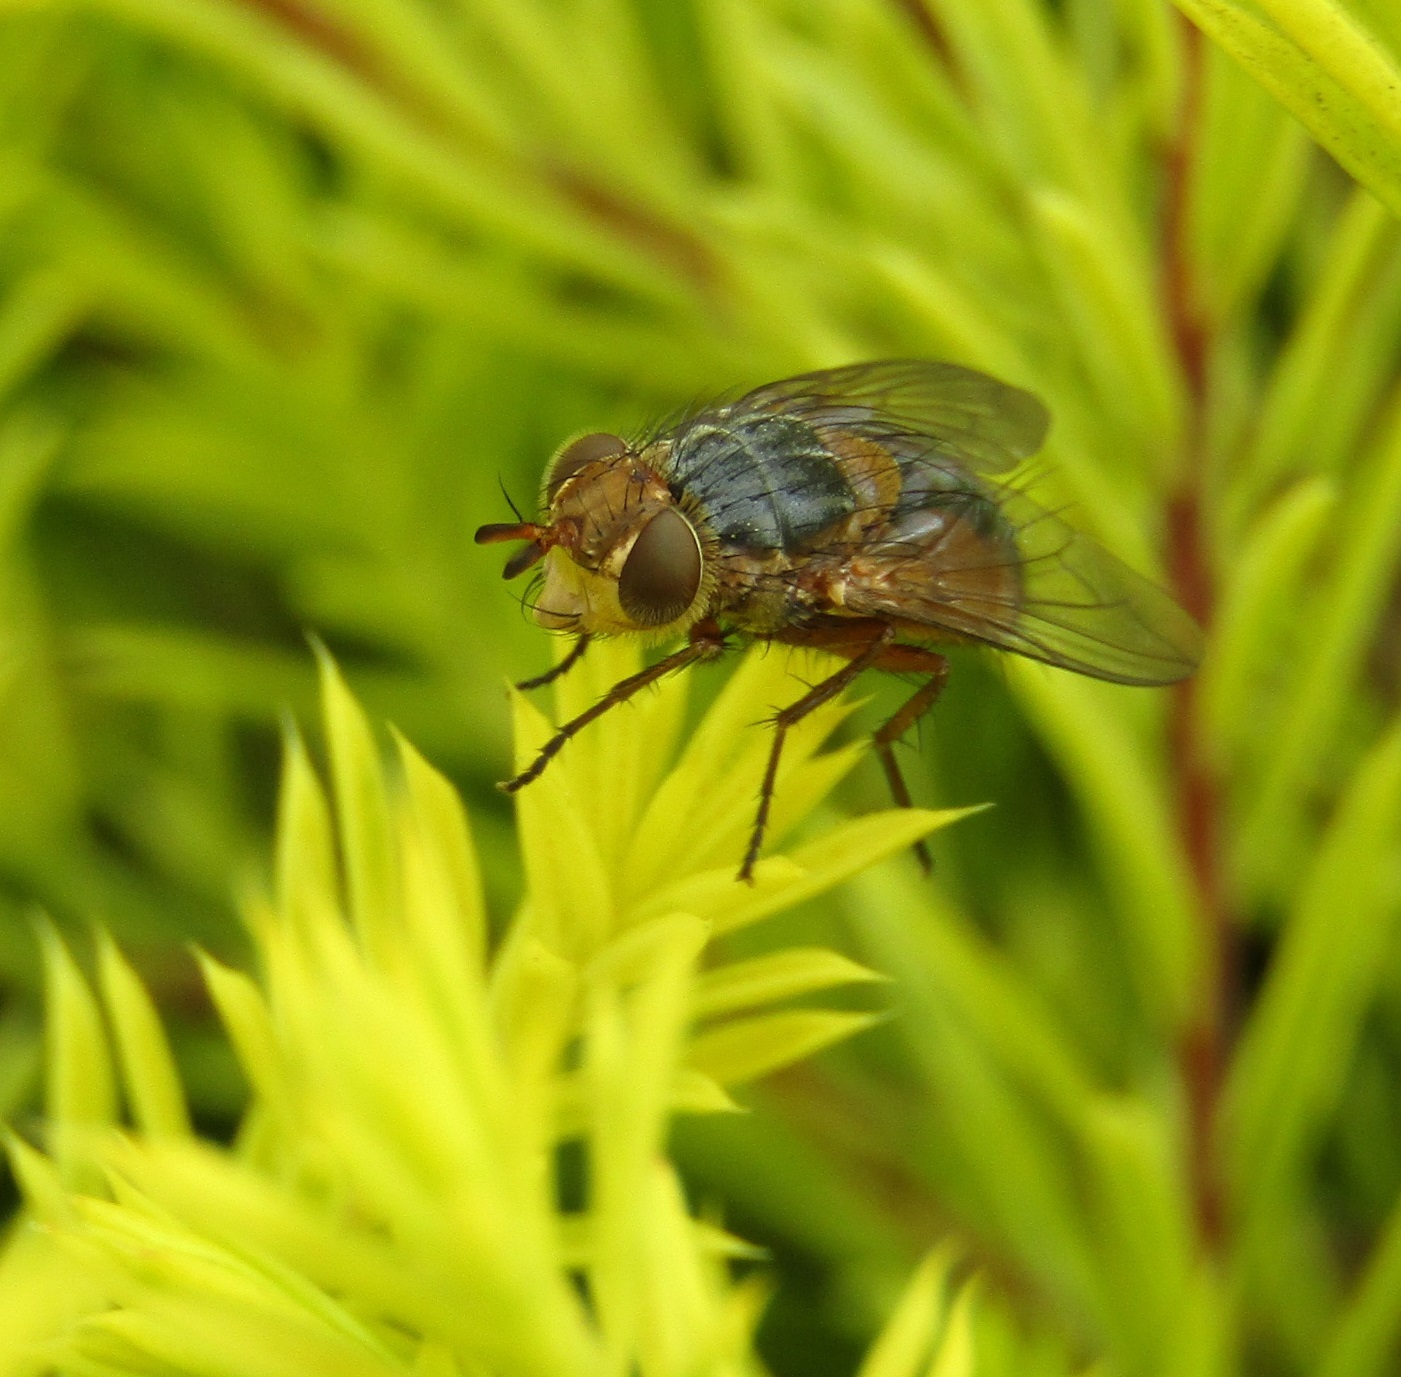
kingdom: Animalia
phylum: Arthropoda
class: Insecta
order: Diptera
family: Tachinidae
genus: Chaetophthalmus
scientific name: Chaetophthalmus bicolor
